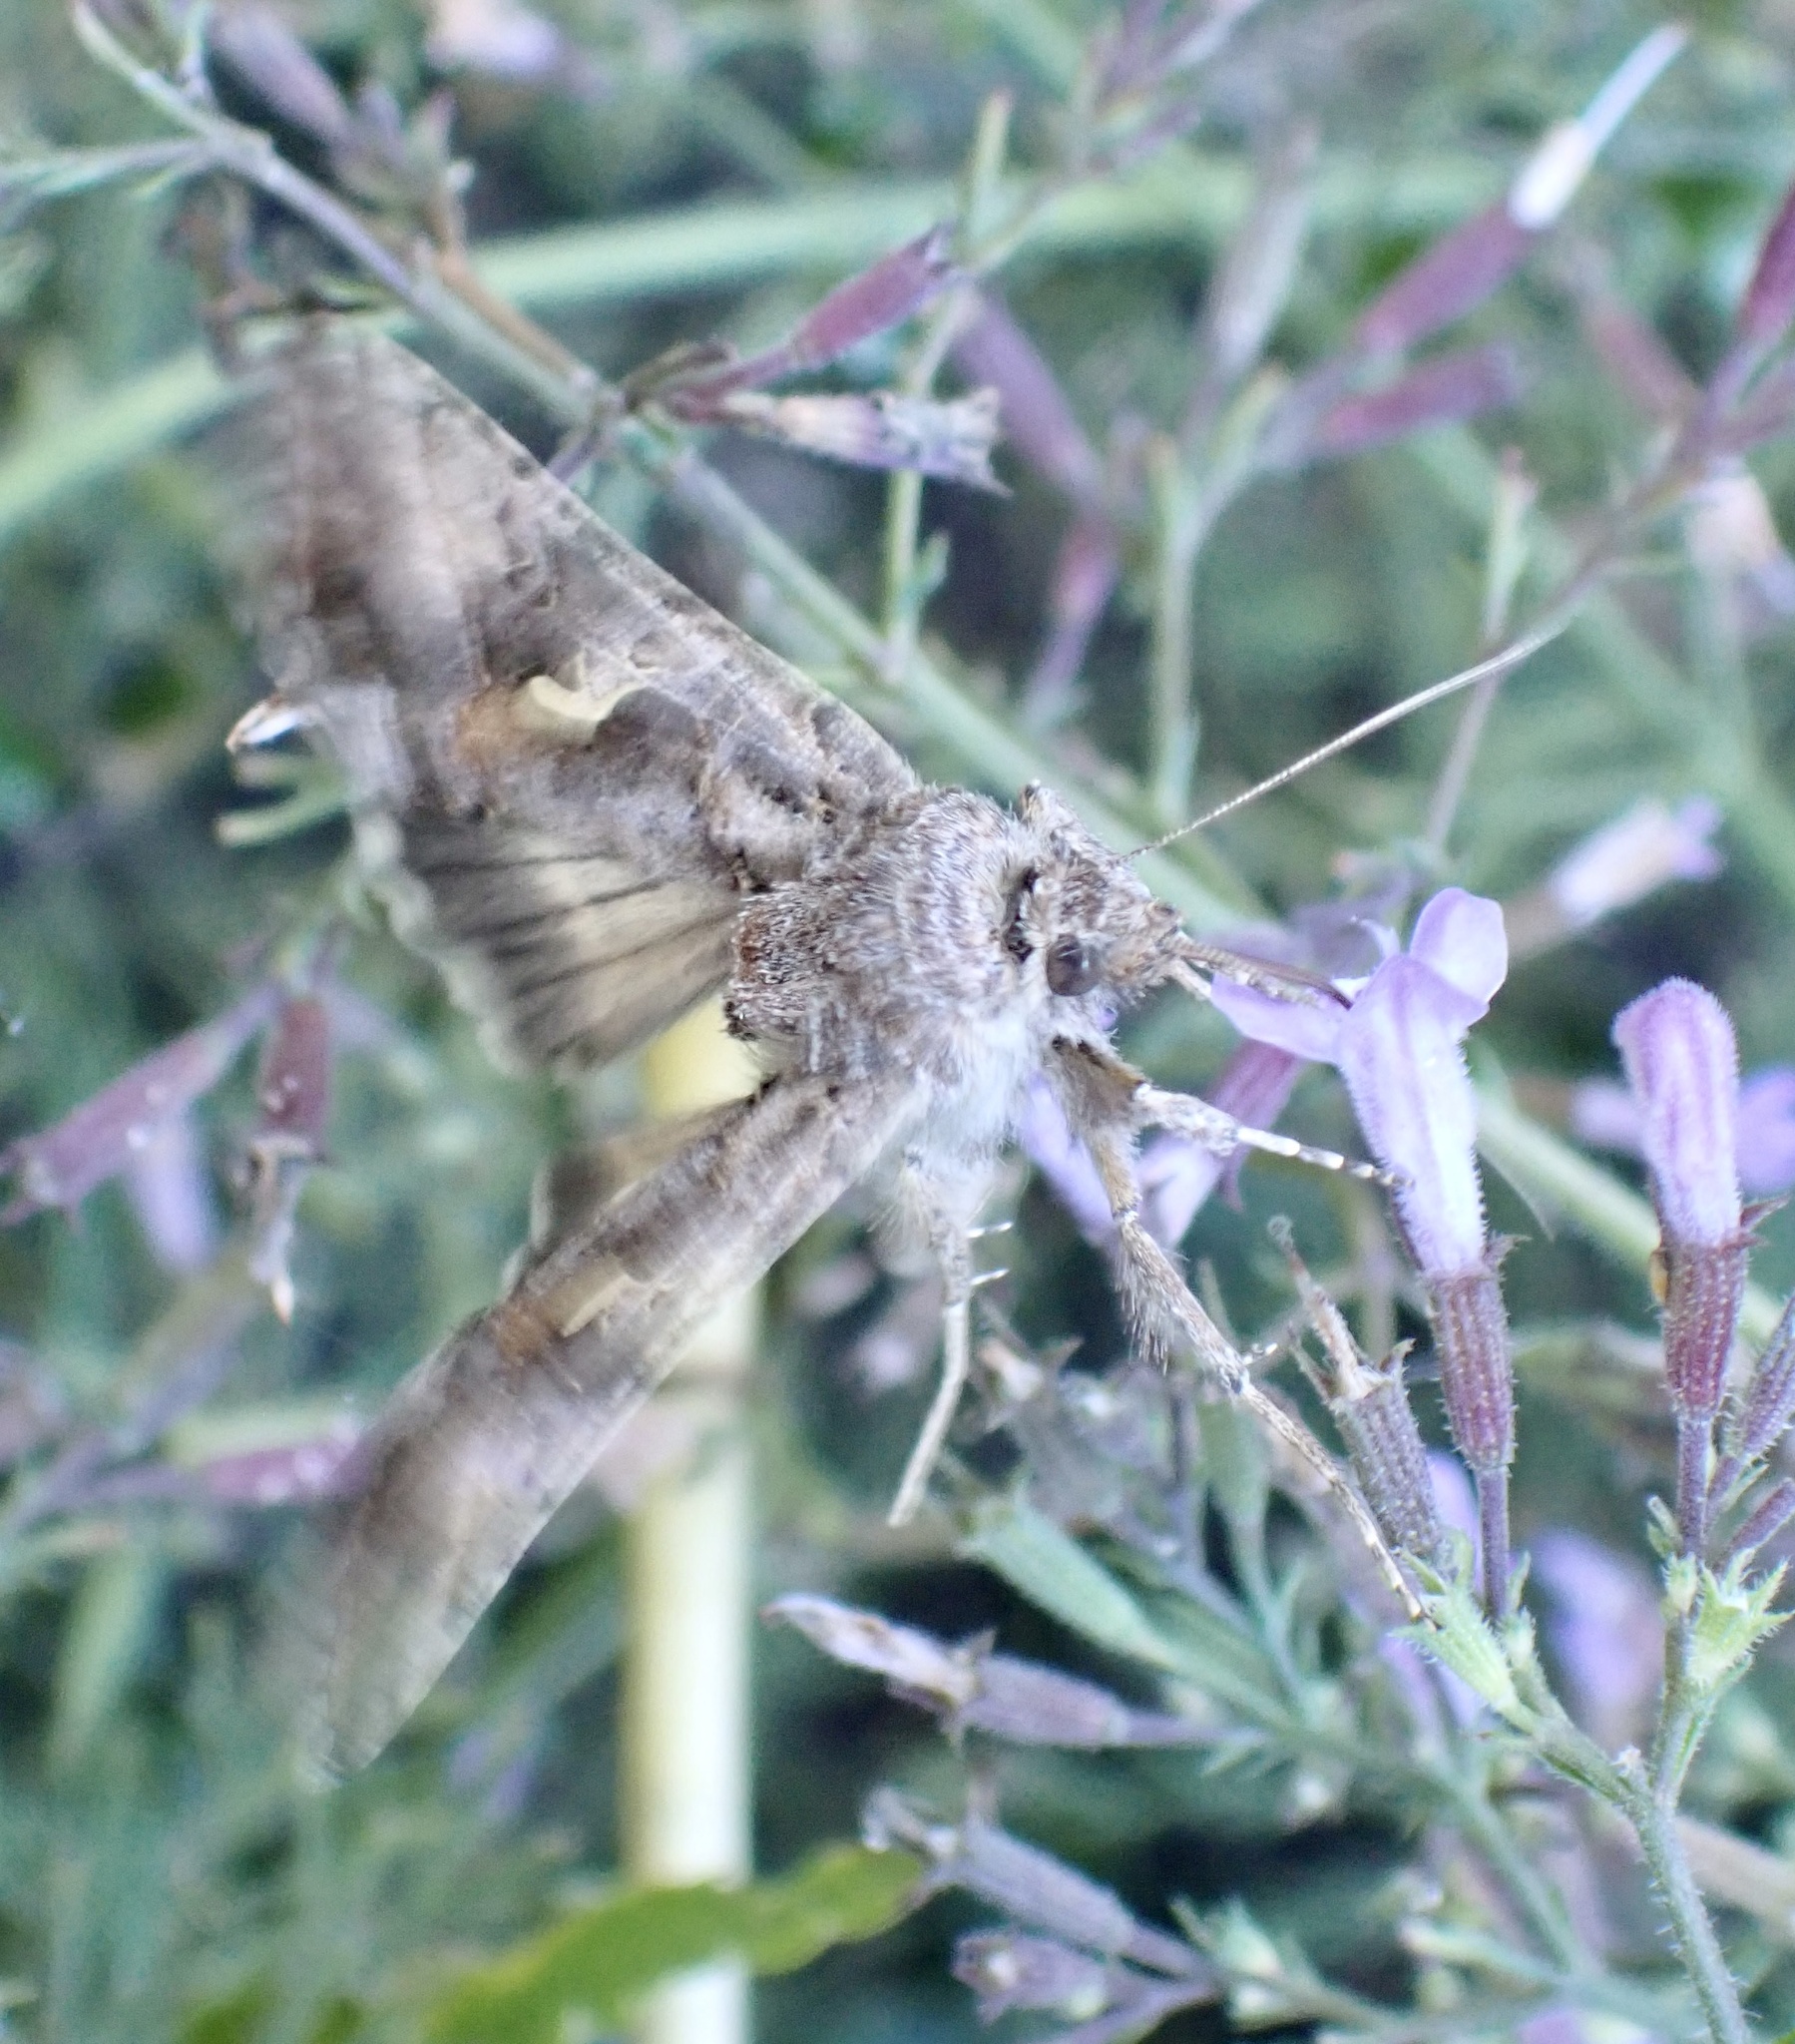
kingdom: Animalia
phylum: Arthropoda
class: Insecta
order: Lepidoptera
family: Noctuidae
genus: Autographa
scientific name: Autographa gamma
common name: Silver y
